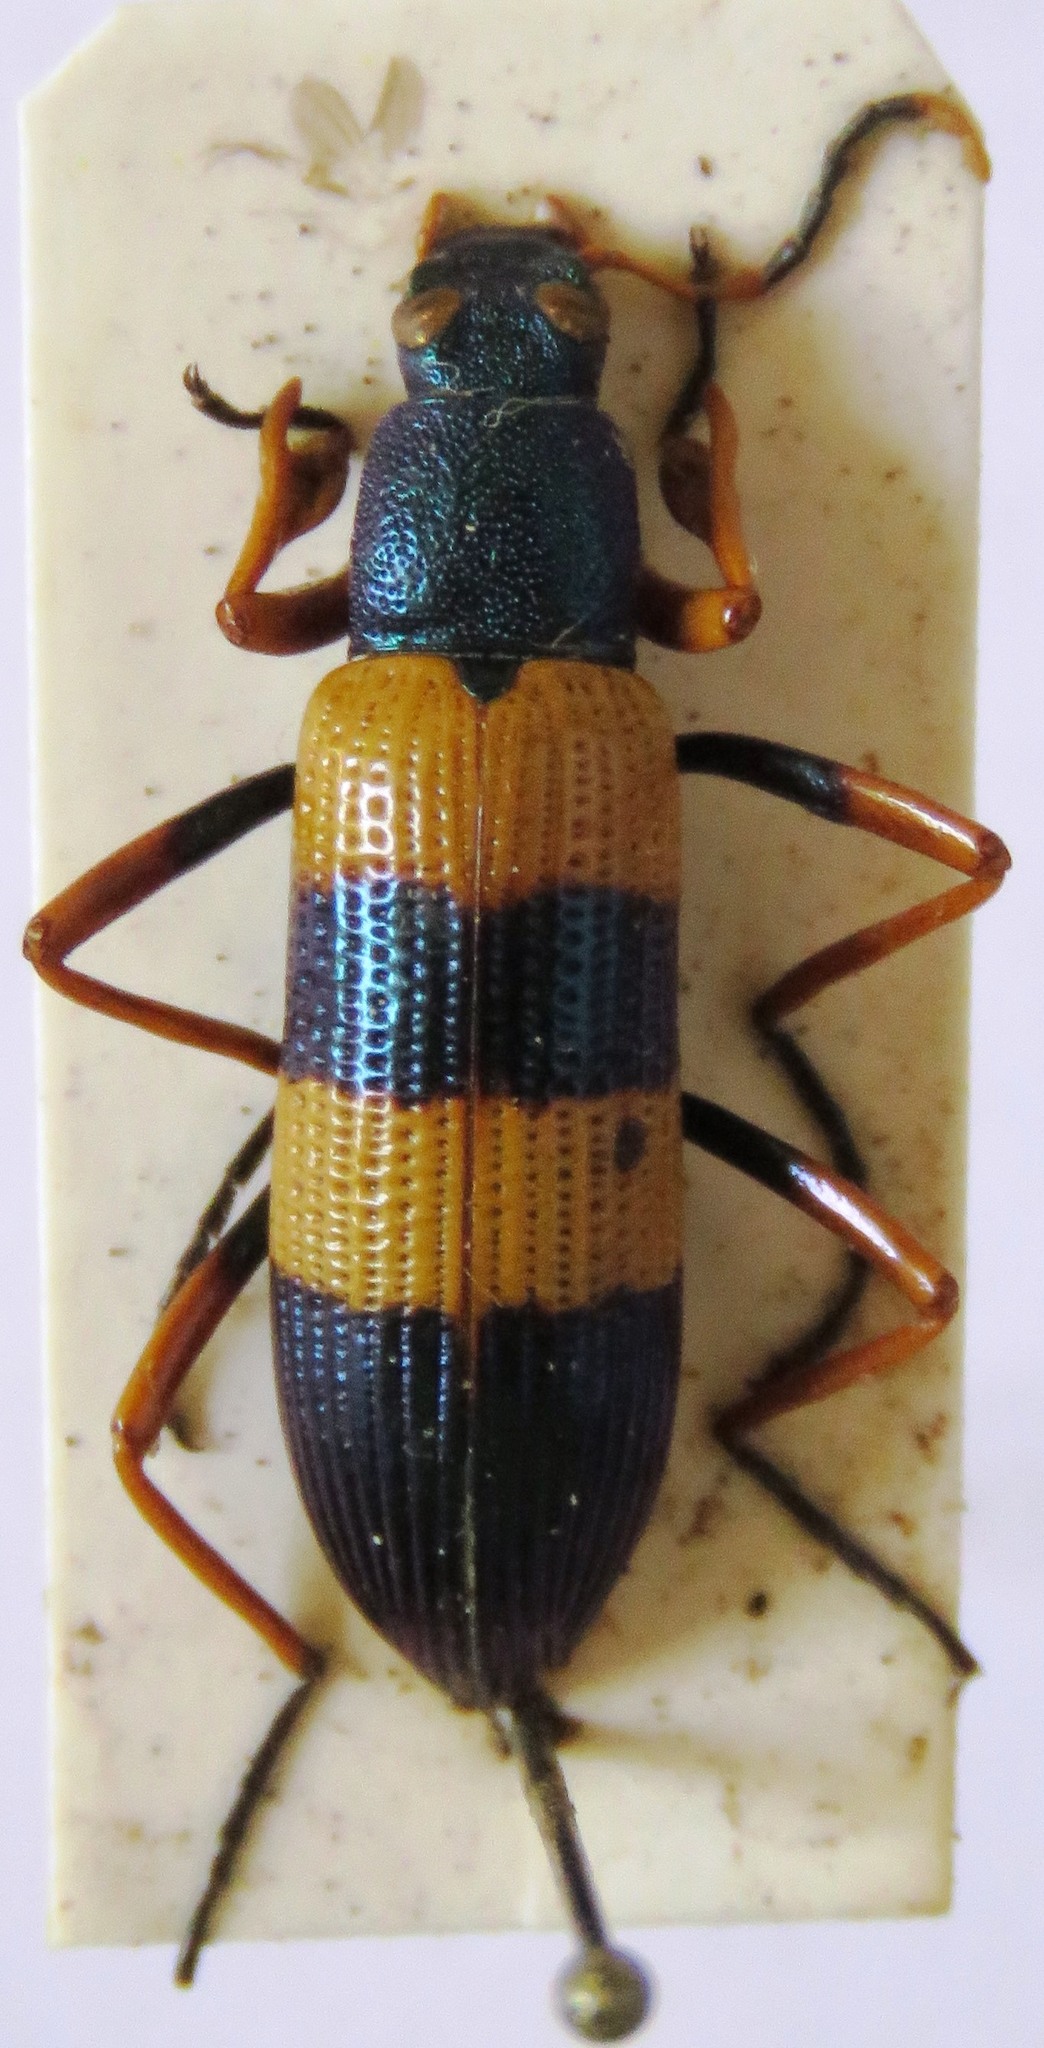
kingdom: Animalia
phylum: Arthropoda
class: Insecta
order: Coleoptera
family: Tenebrionidae
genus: Strongylium
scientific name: Strongylium simplicipes
